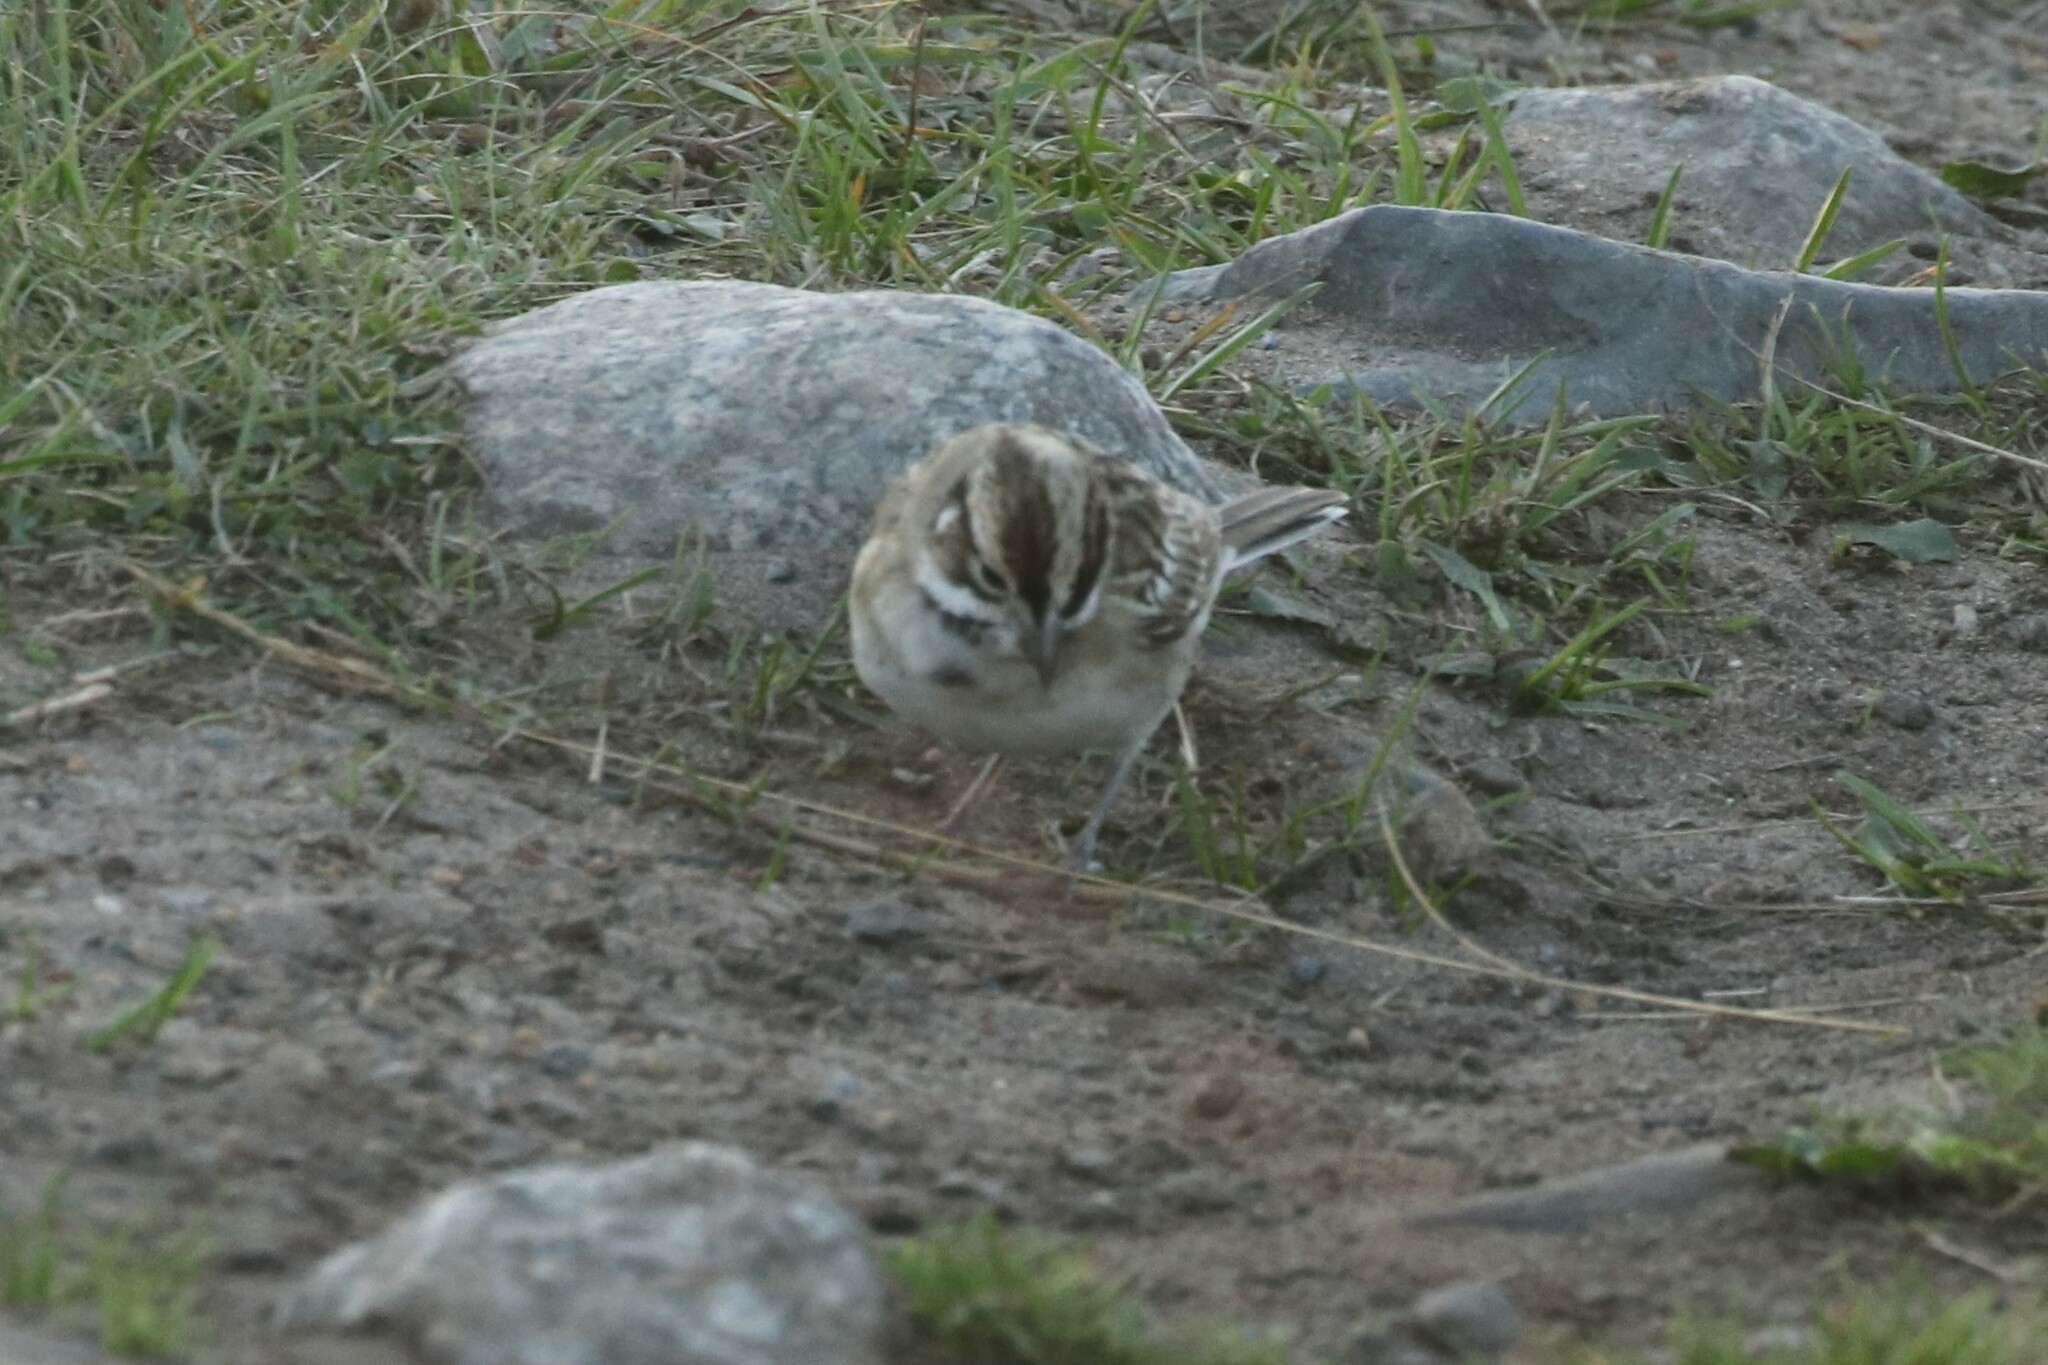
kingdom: Animalia
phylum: Chordata
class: Aves
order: Passeriformes
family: Passerellidae
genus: Chondestes
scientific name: Chondestes grammacus
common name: Lark sparrow
